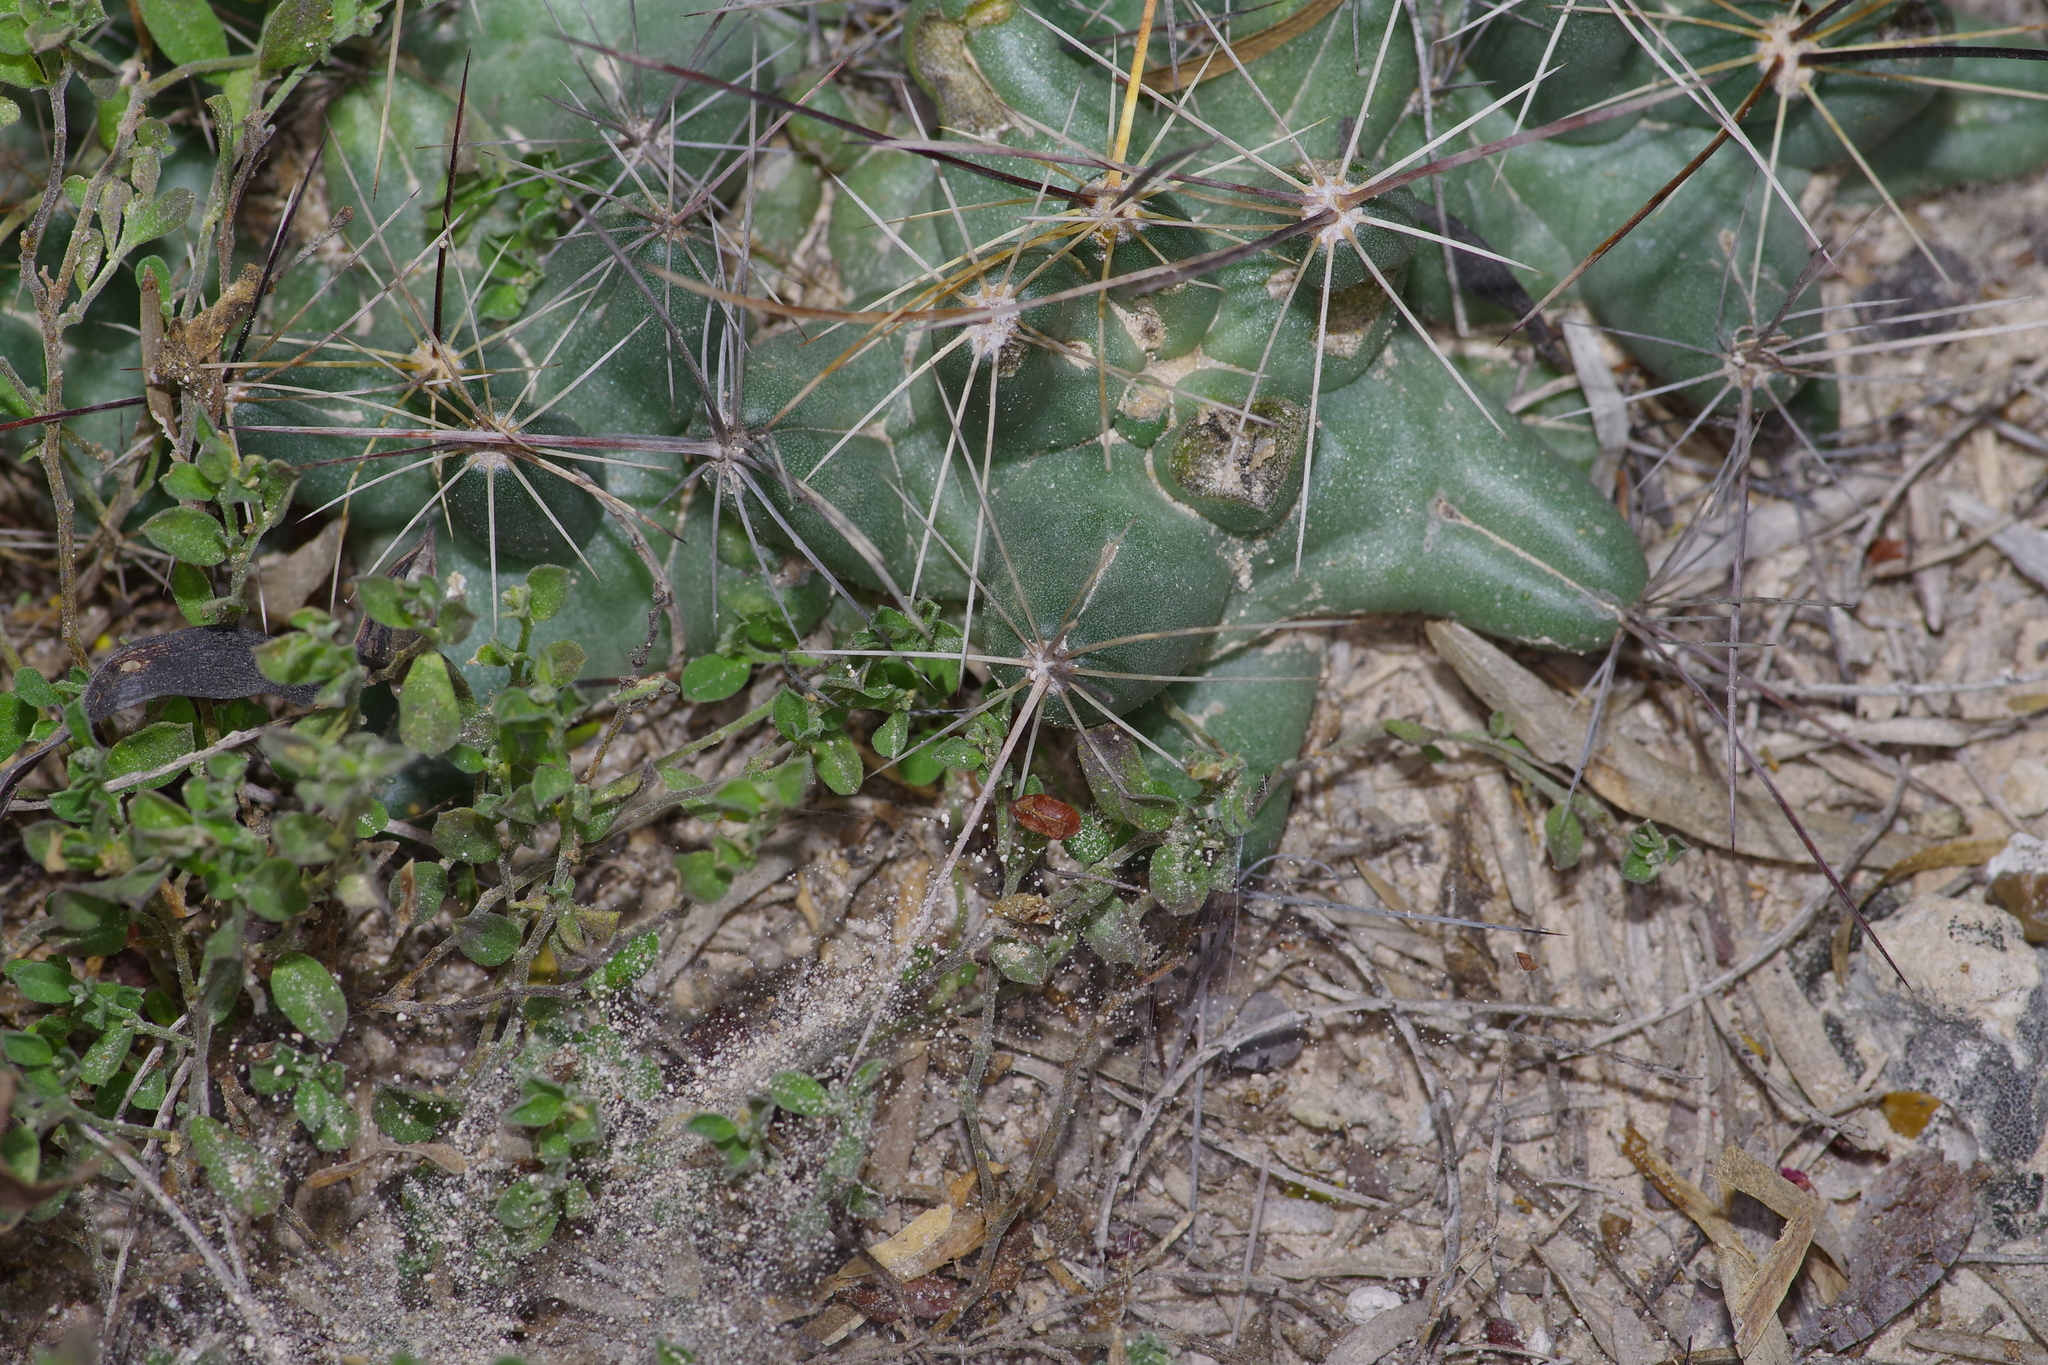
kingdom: Plantae
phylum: Tracheophyta
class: Magnoliopsida
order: Caryophyllales
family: Cactaceae
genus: Pelecyphora
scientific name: Pelecyphora macromeris
